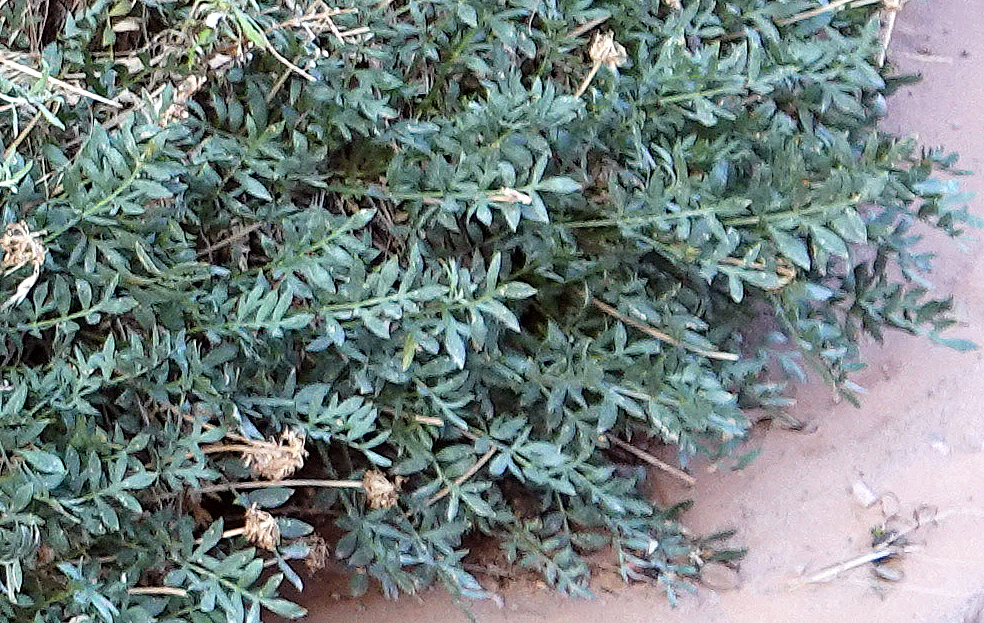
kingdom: Plantae
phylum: Tracheophyta
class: Magnoliopsida
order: Apiales
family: Apiaceae
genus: Lomatium
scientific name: Lomatium latilobum
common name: Canyonlands lomatium
